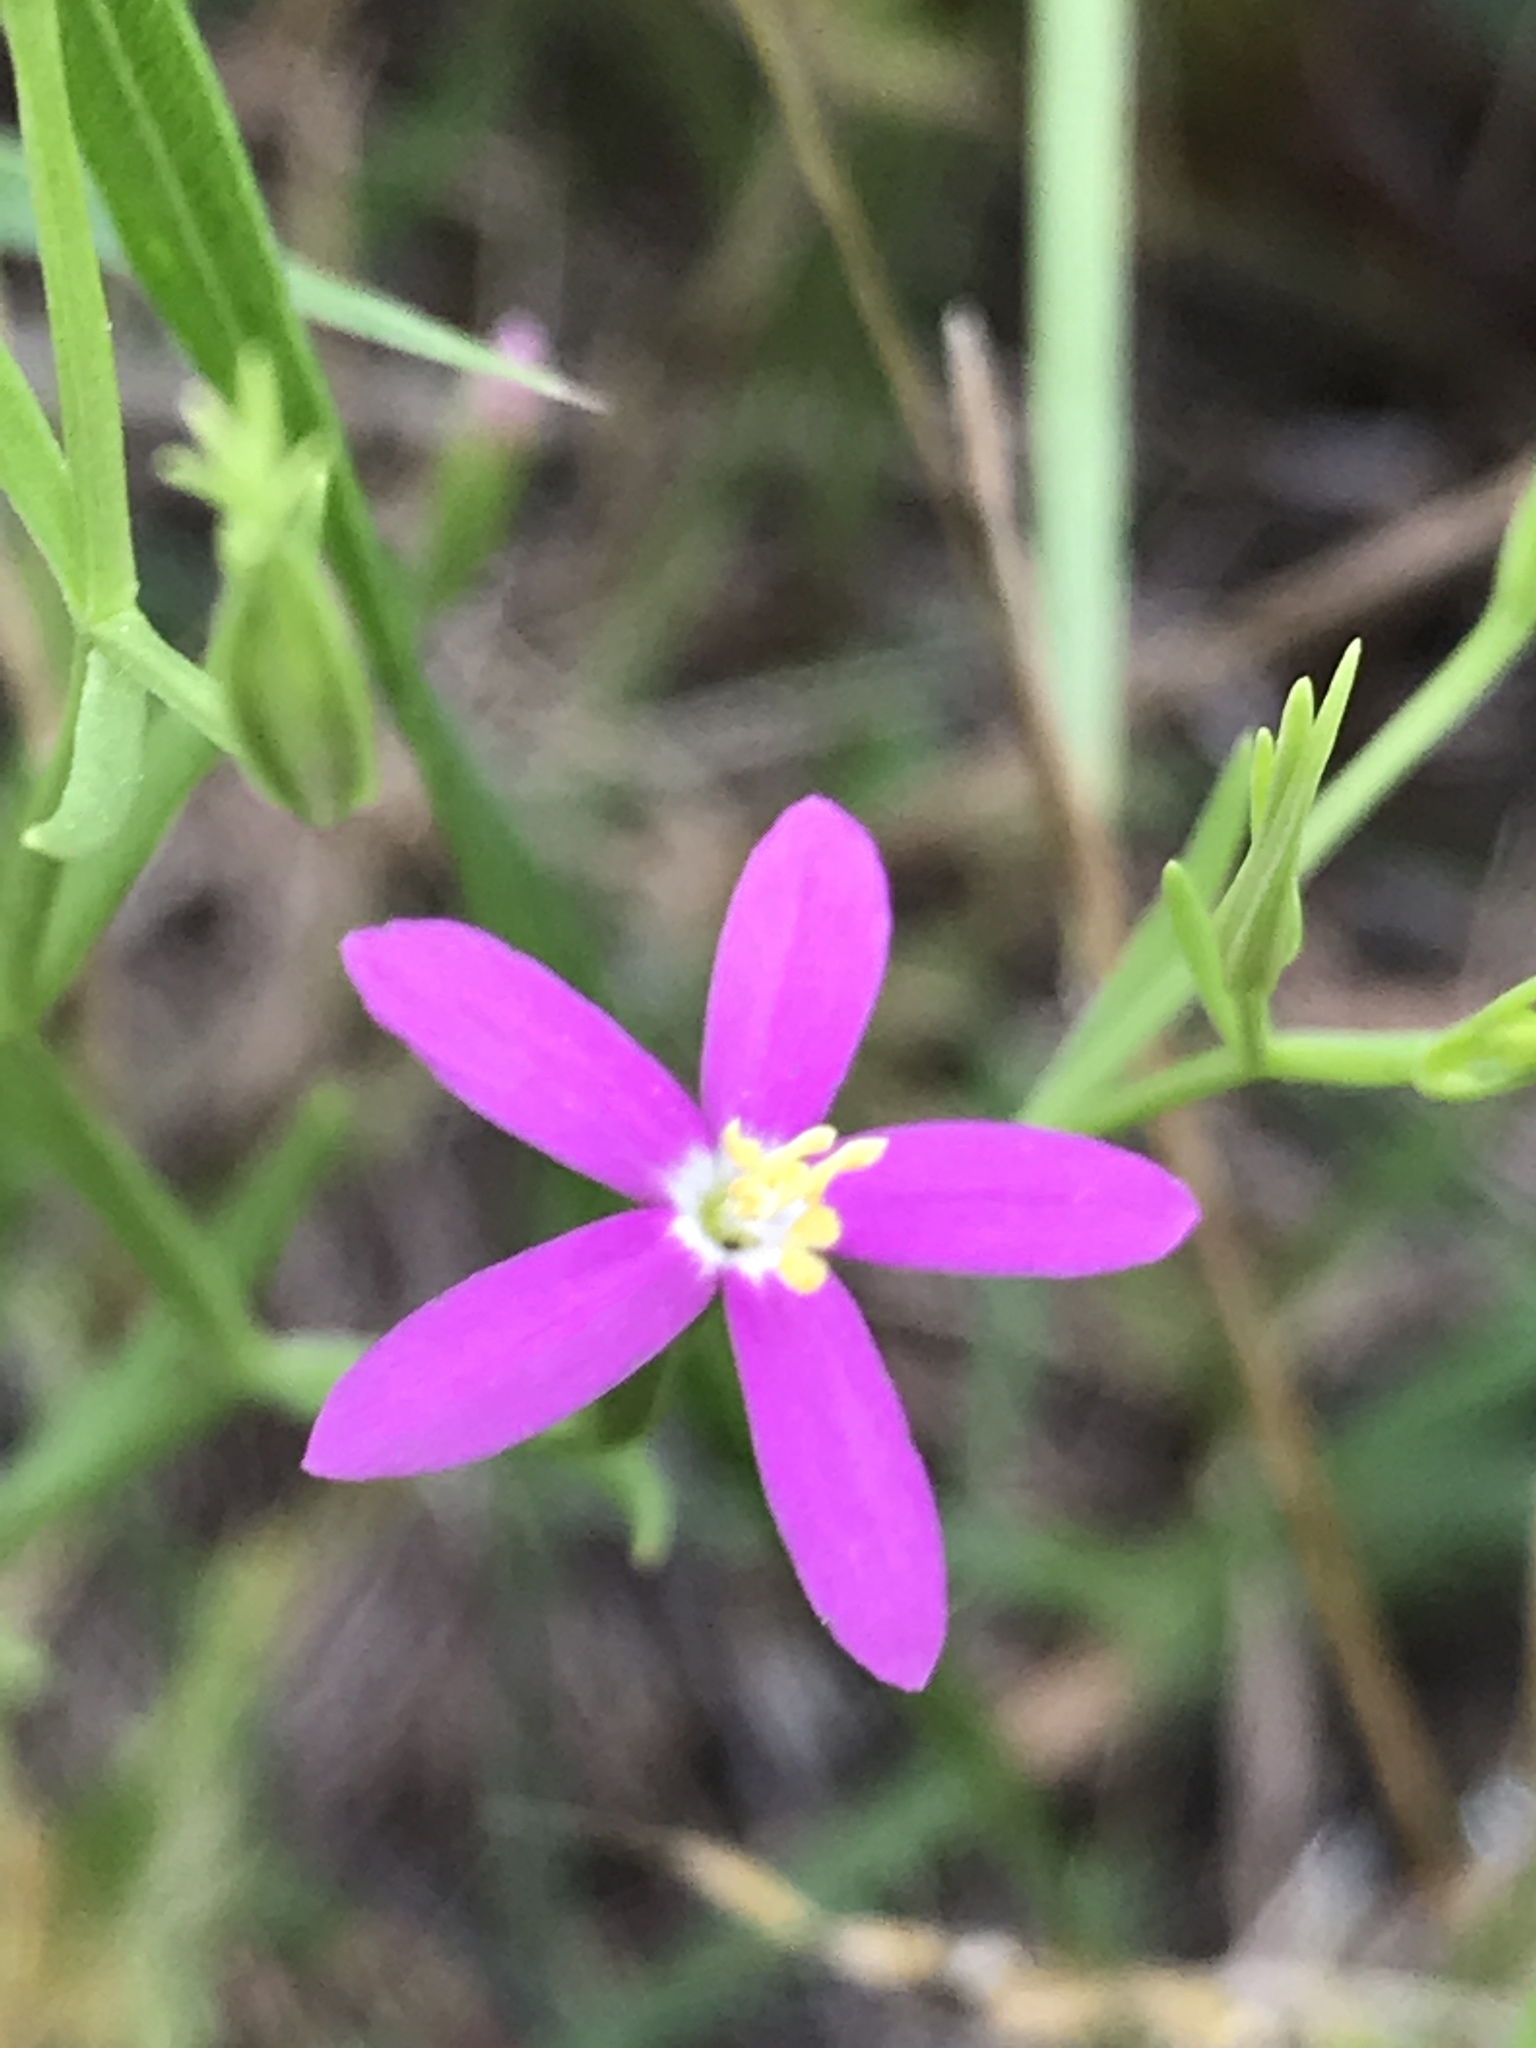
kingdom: Plantae
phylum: Tracheophyta
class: Magnoliopsida
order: Gentianales
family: Gentianaceae
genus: Zeltnera
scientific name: Zeltnera texensis
